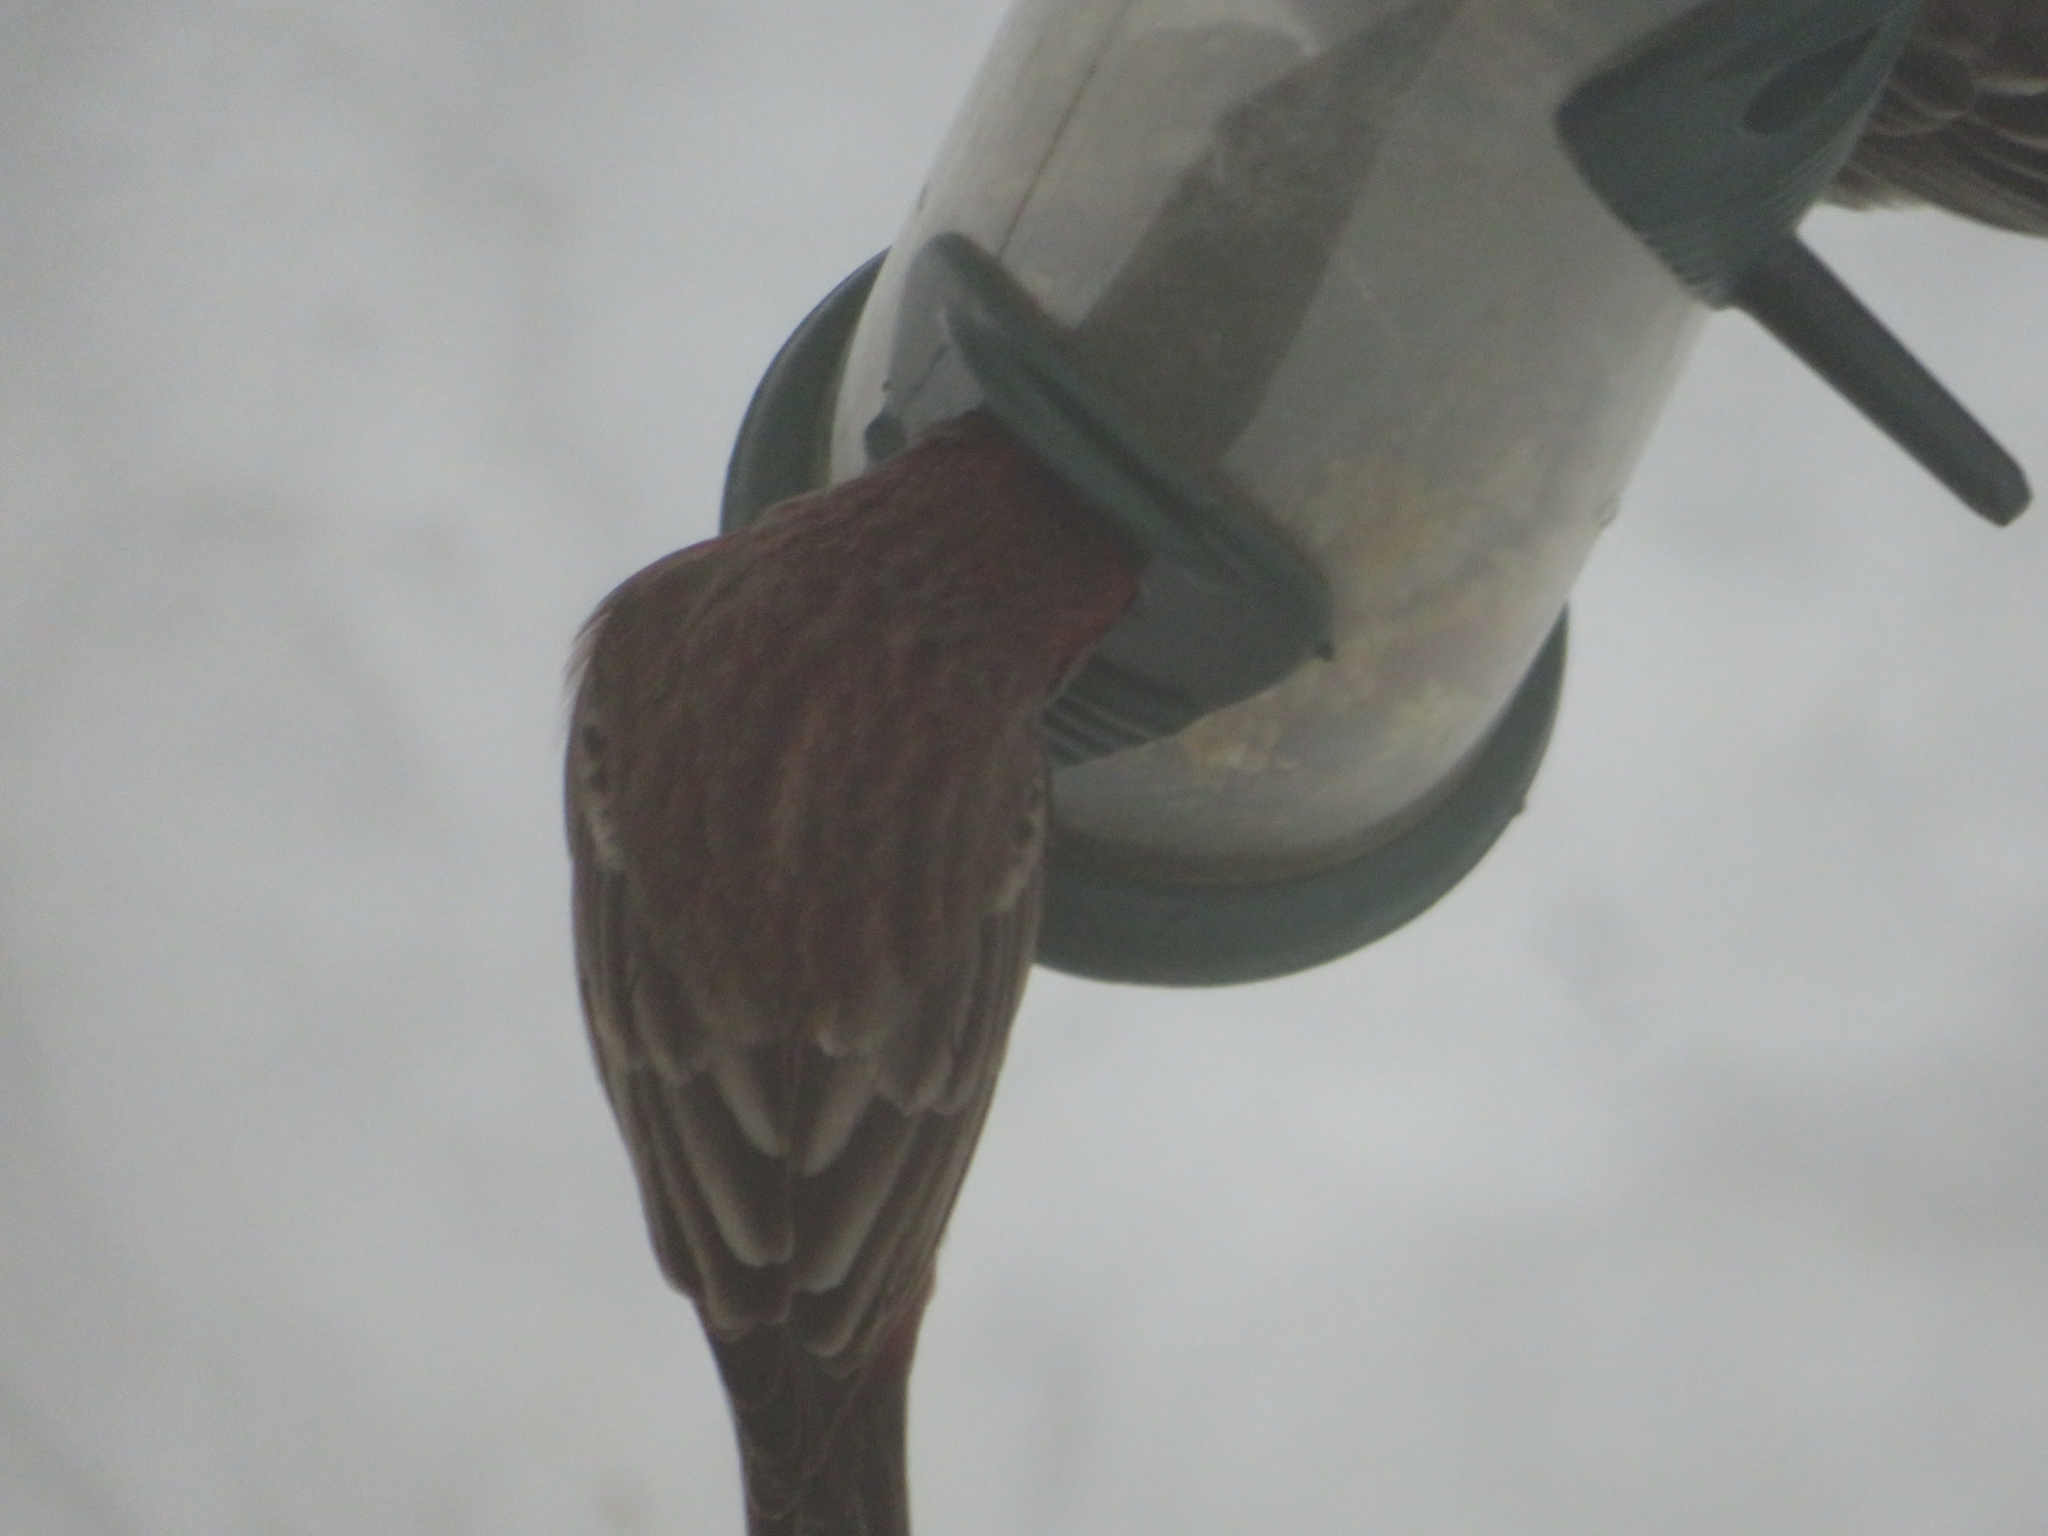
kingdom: Animalia
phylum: Chordata
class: Aves
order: Passeriformes
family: Fringillidae
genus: Haemorhous
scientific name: Haemorhous mexicanus
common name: House finch
